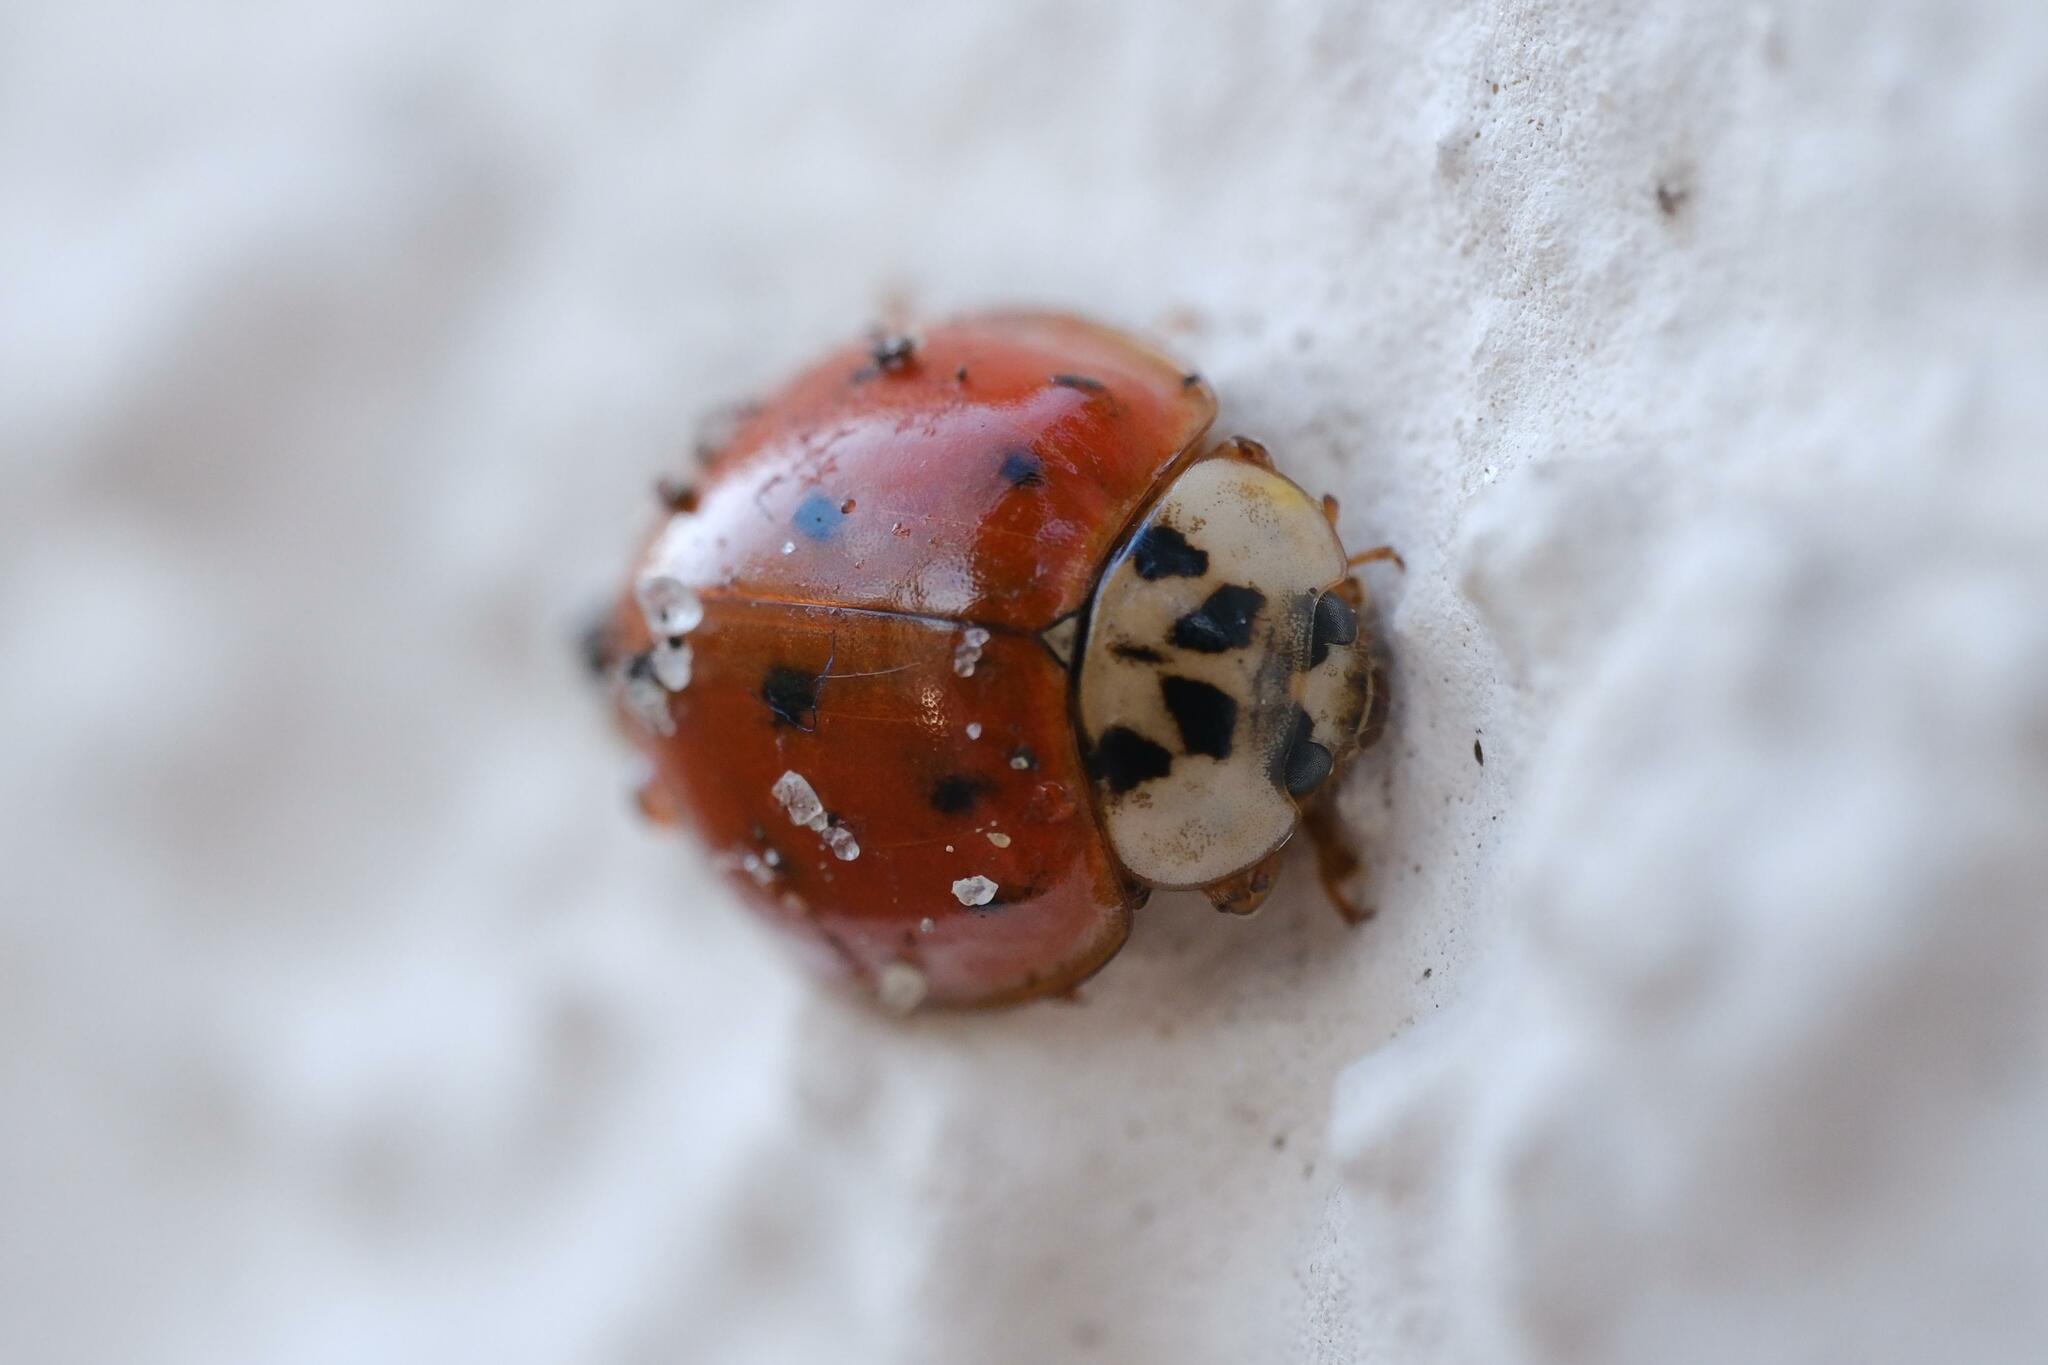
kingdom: Animalia
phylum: Arthropoda
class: Insecta
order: Coleoptera
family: Coccinellidae
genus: Harmonia
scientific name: Harmonia axyridis
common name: Harlequin ladybird
